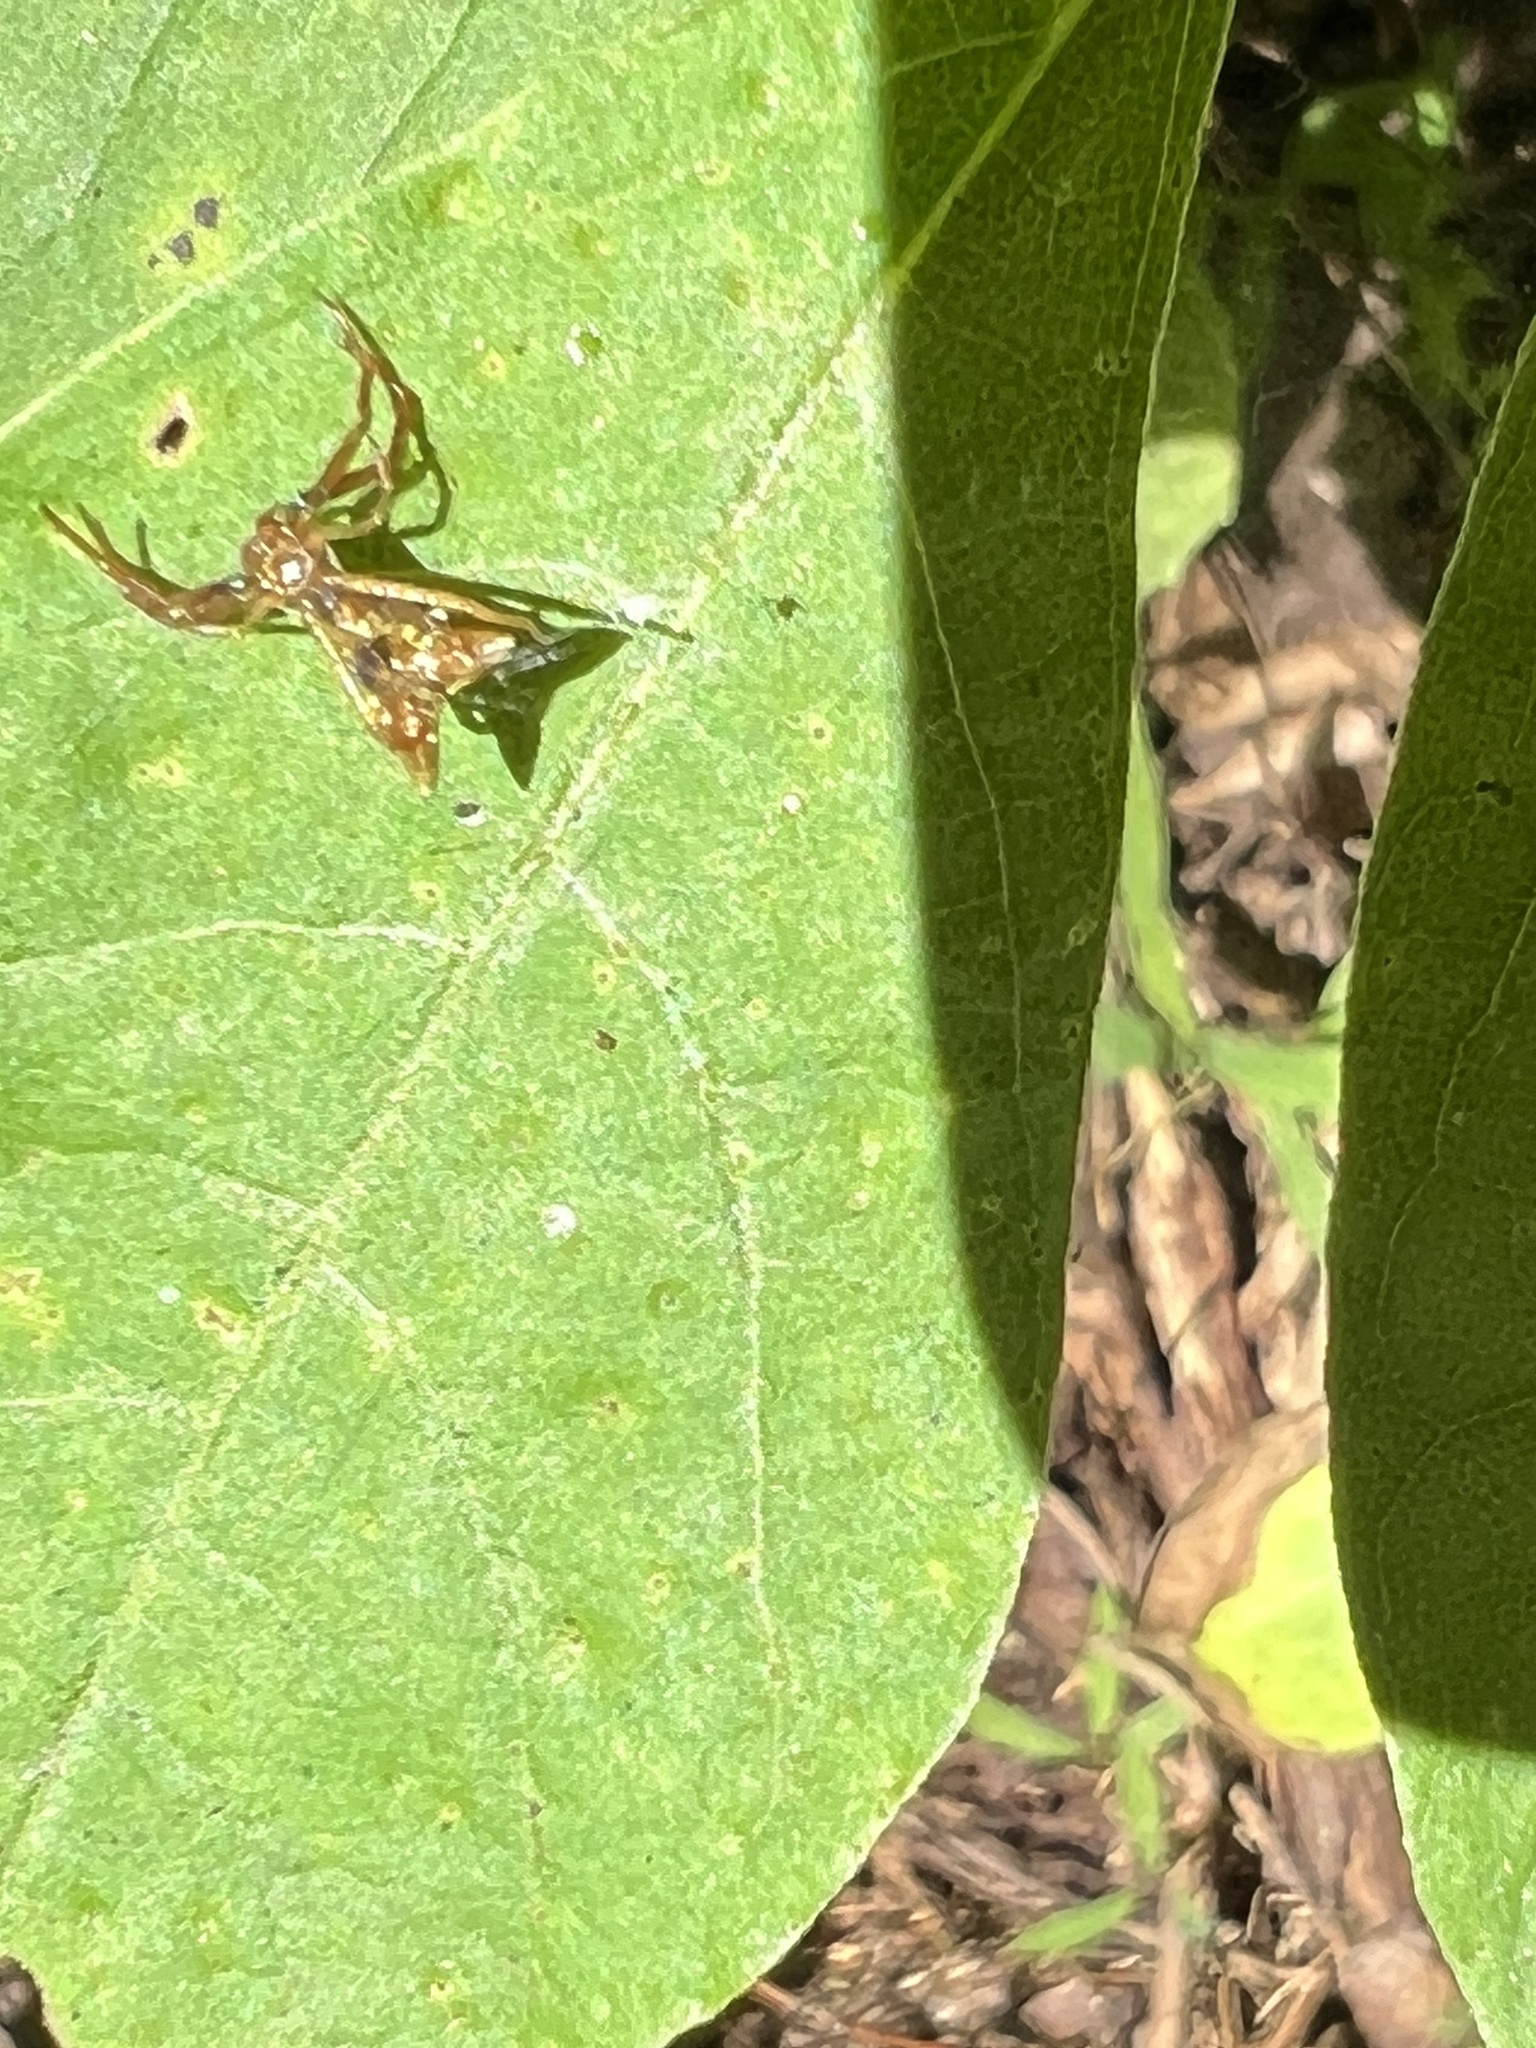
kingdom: Animalia
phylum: Arthropoda
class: Arachnida
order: Araneae
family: Araneidae
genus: Micrathena
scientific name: Micrathena sagittata
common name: Orb weavers
